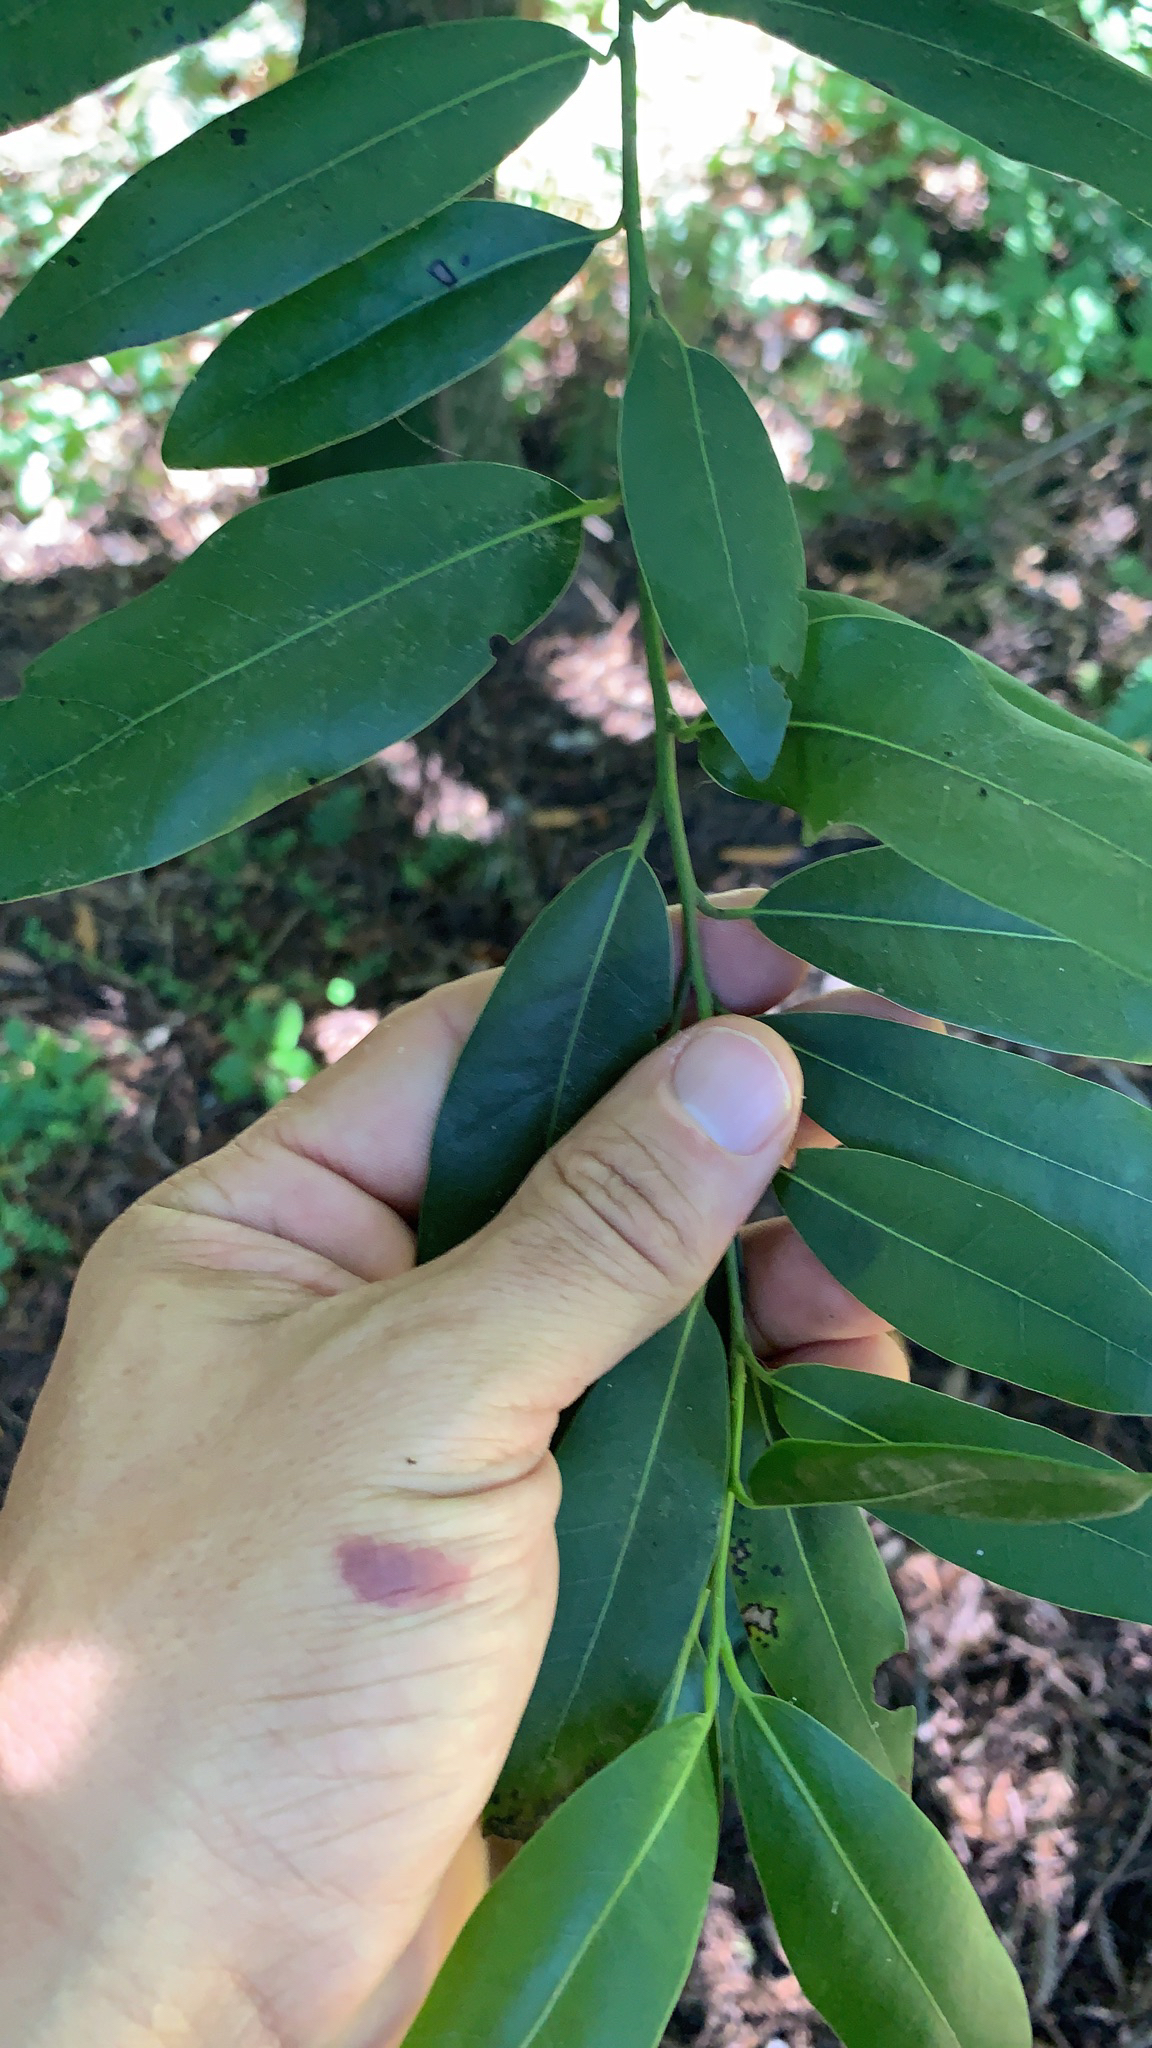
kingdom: Plantae
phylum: Tracheophyta
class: Magnoliopsida
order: Laurales
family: Lauraceae
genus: Umbellularia
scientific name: Umbellularia californica
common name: California bay
